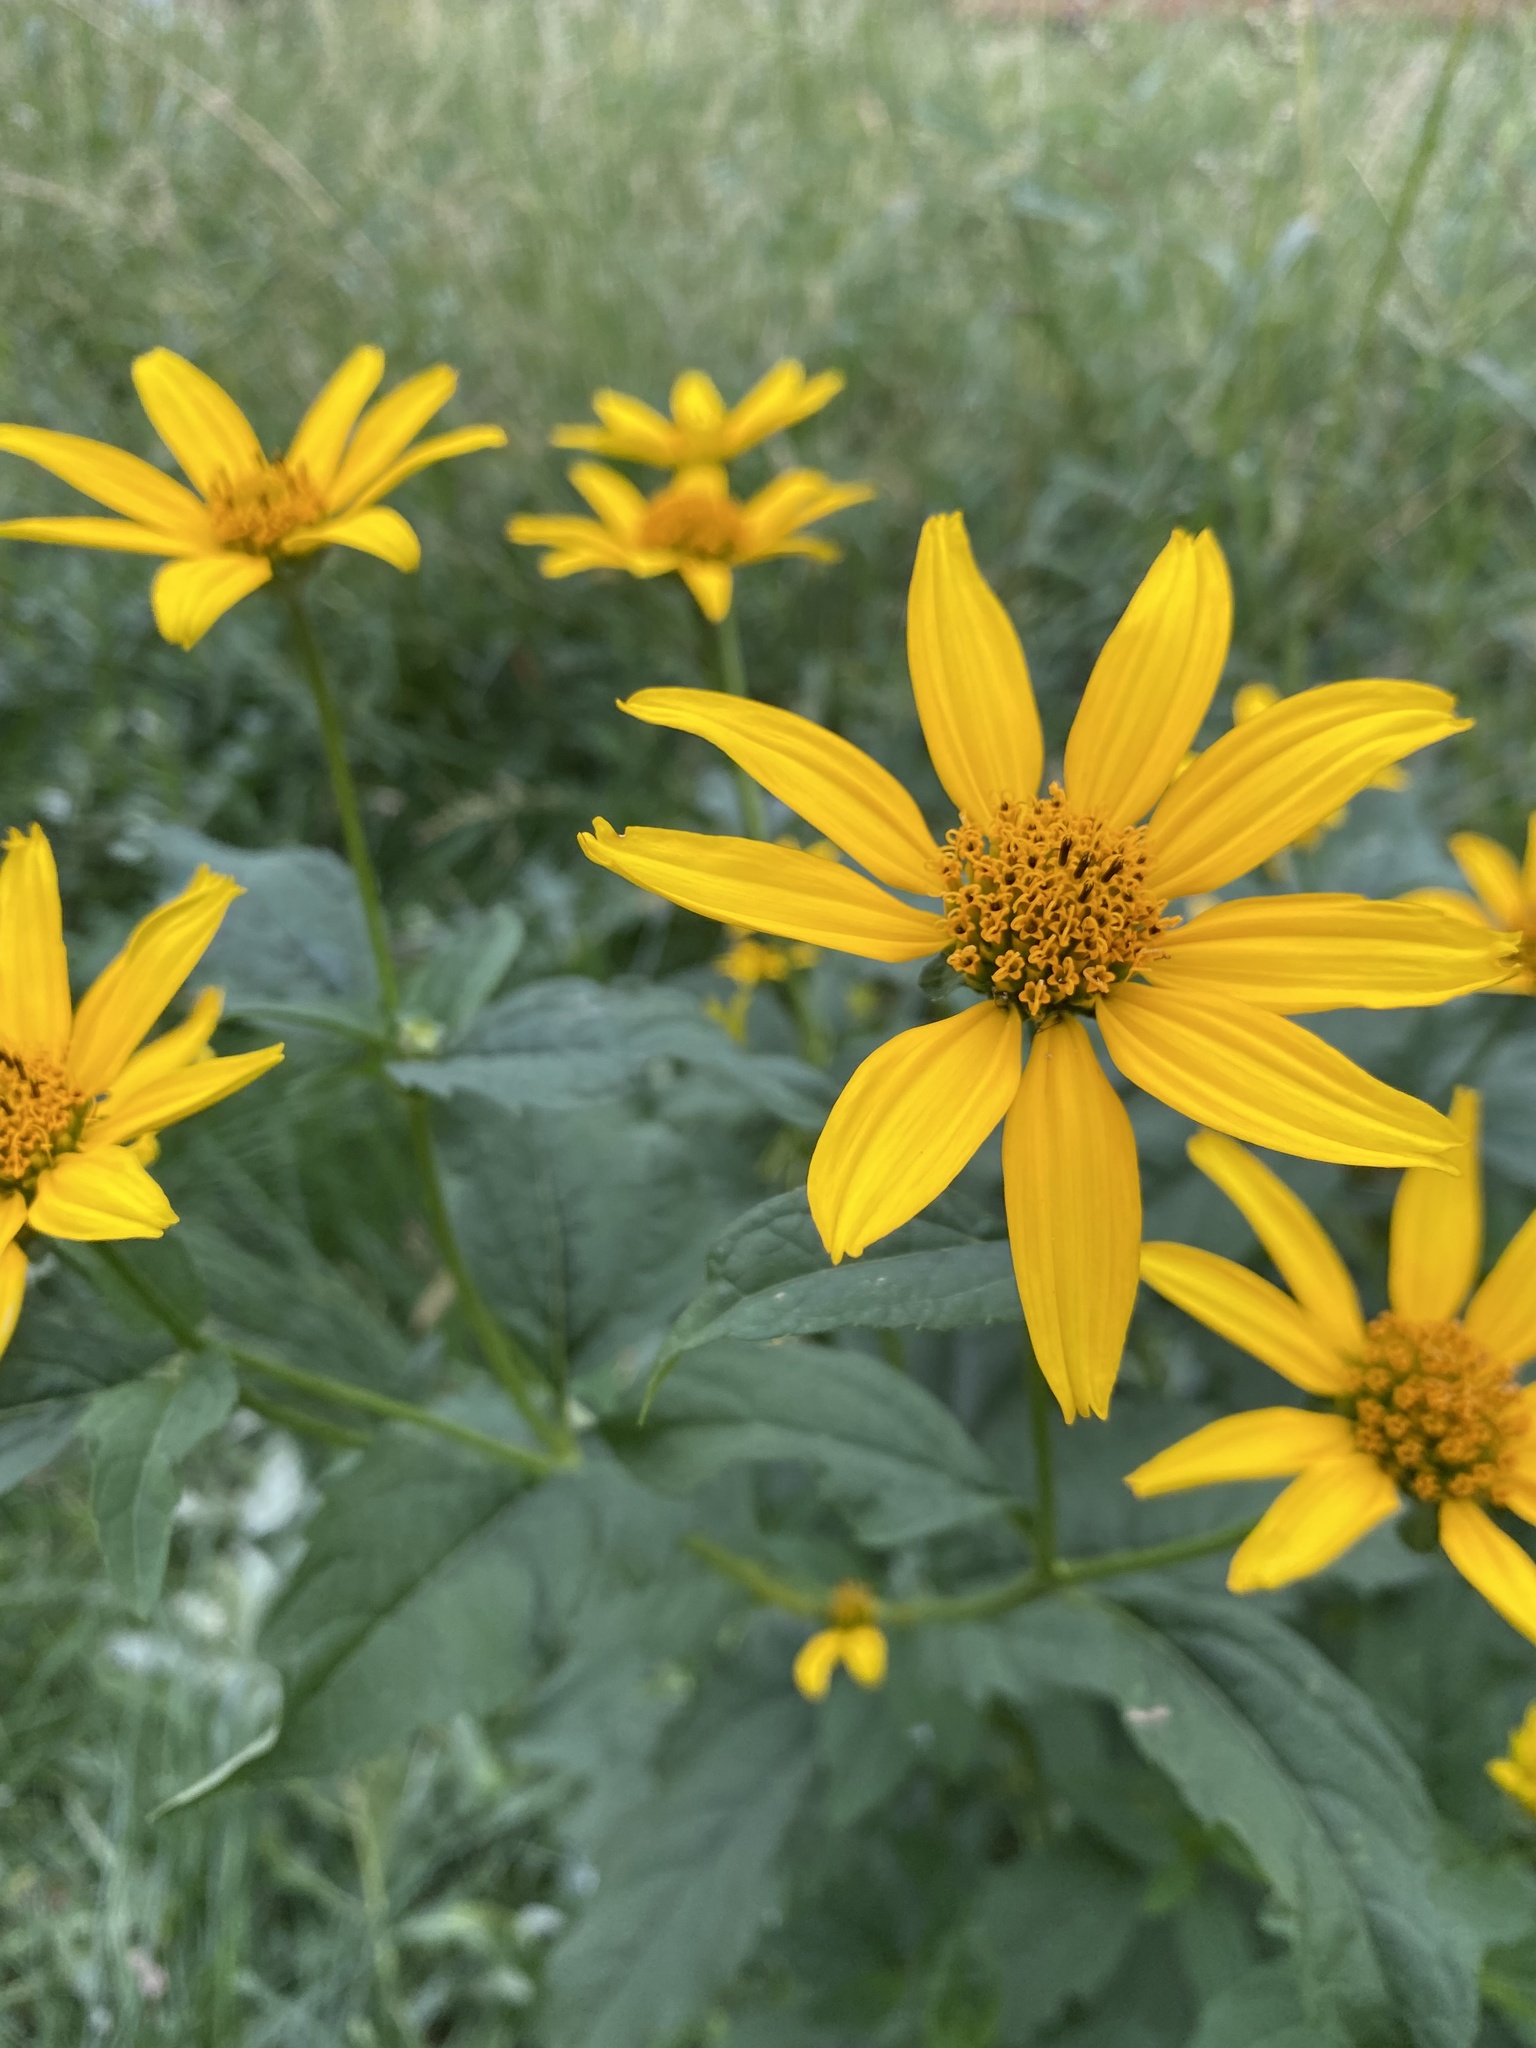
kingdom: Plantae
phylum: Tracheophyta
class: Magnoliopsida
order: Asterales
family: Asteraceae
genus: Heliopsis
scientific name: Heliopsis helianthoides
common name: False sunflower
